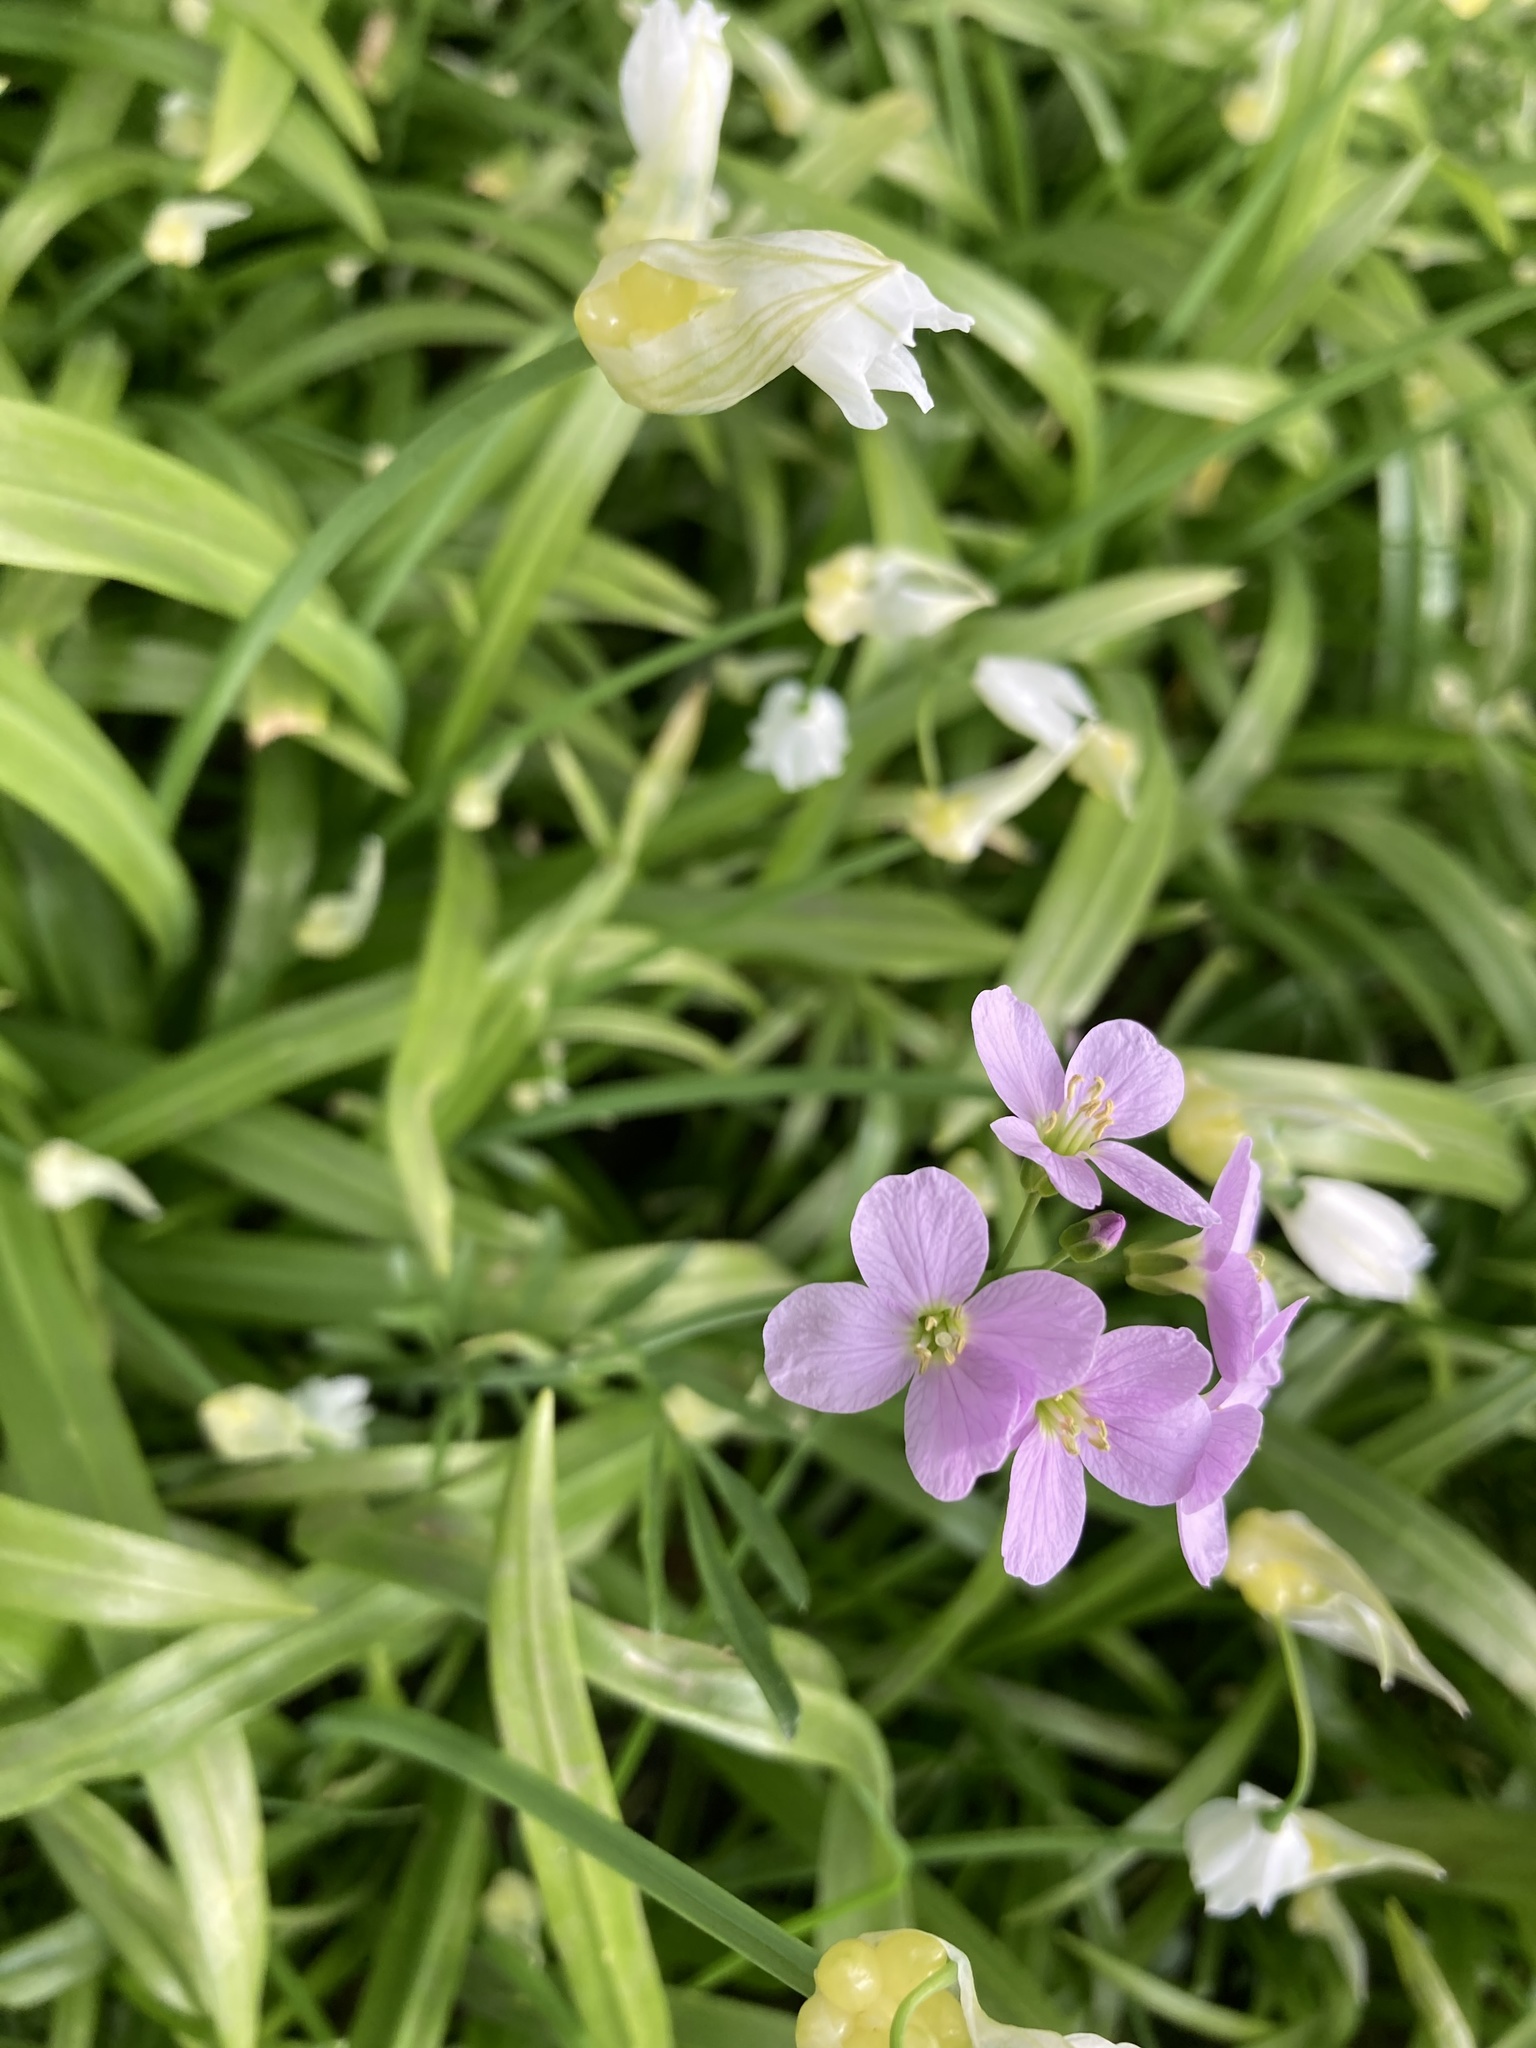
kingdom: Plantae
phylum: Tracheophyta
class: Magnoliopsida
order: Brassicales
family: Brassicaceae
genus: Cardamine
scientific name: Cardamine pratensis
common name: Cuckoo flower
